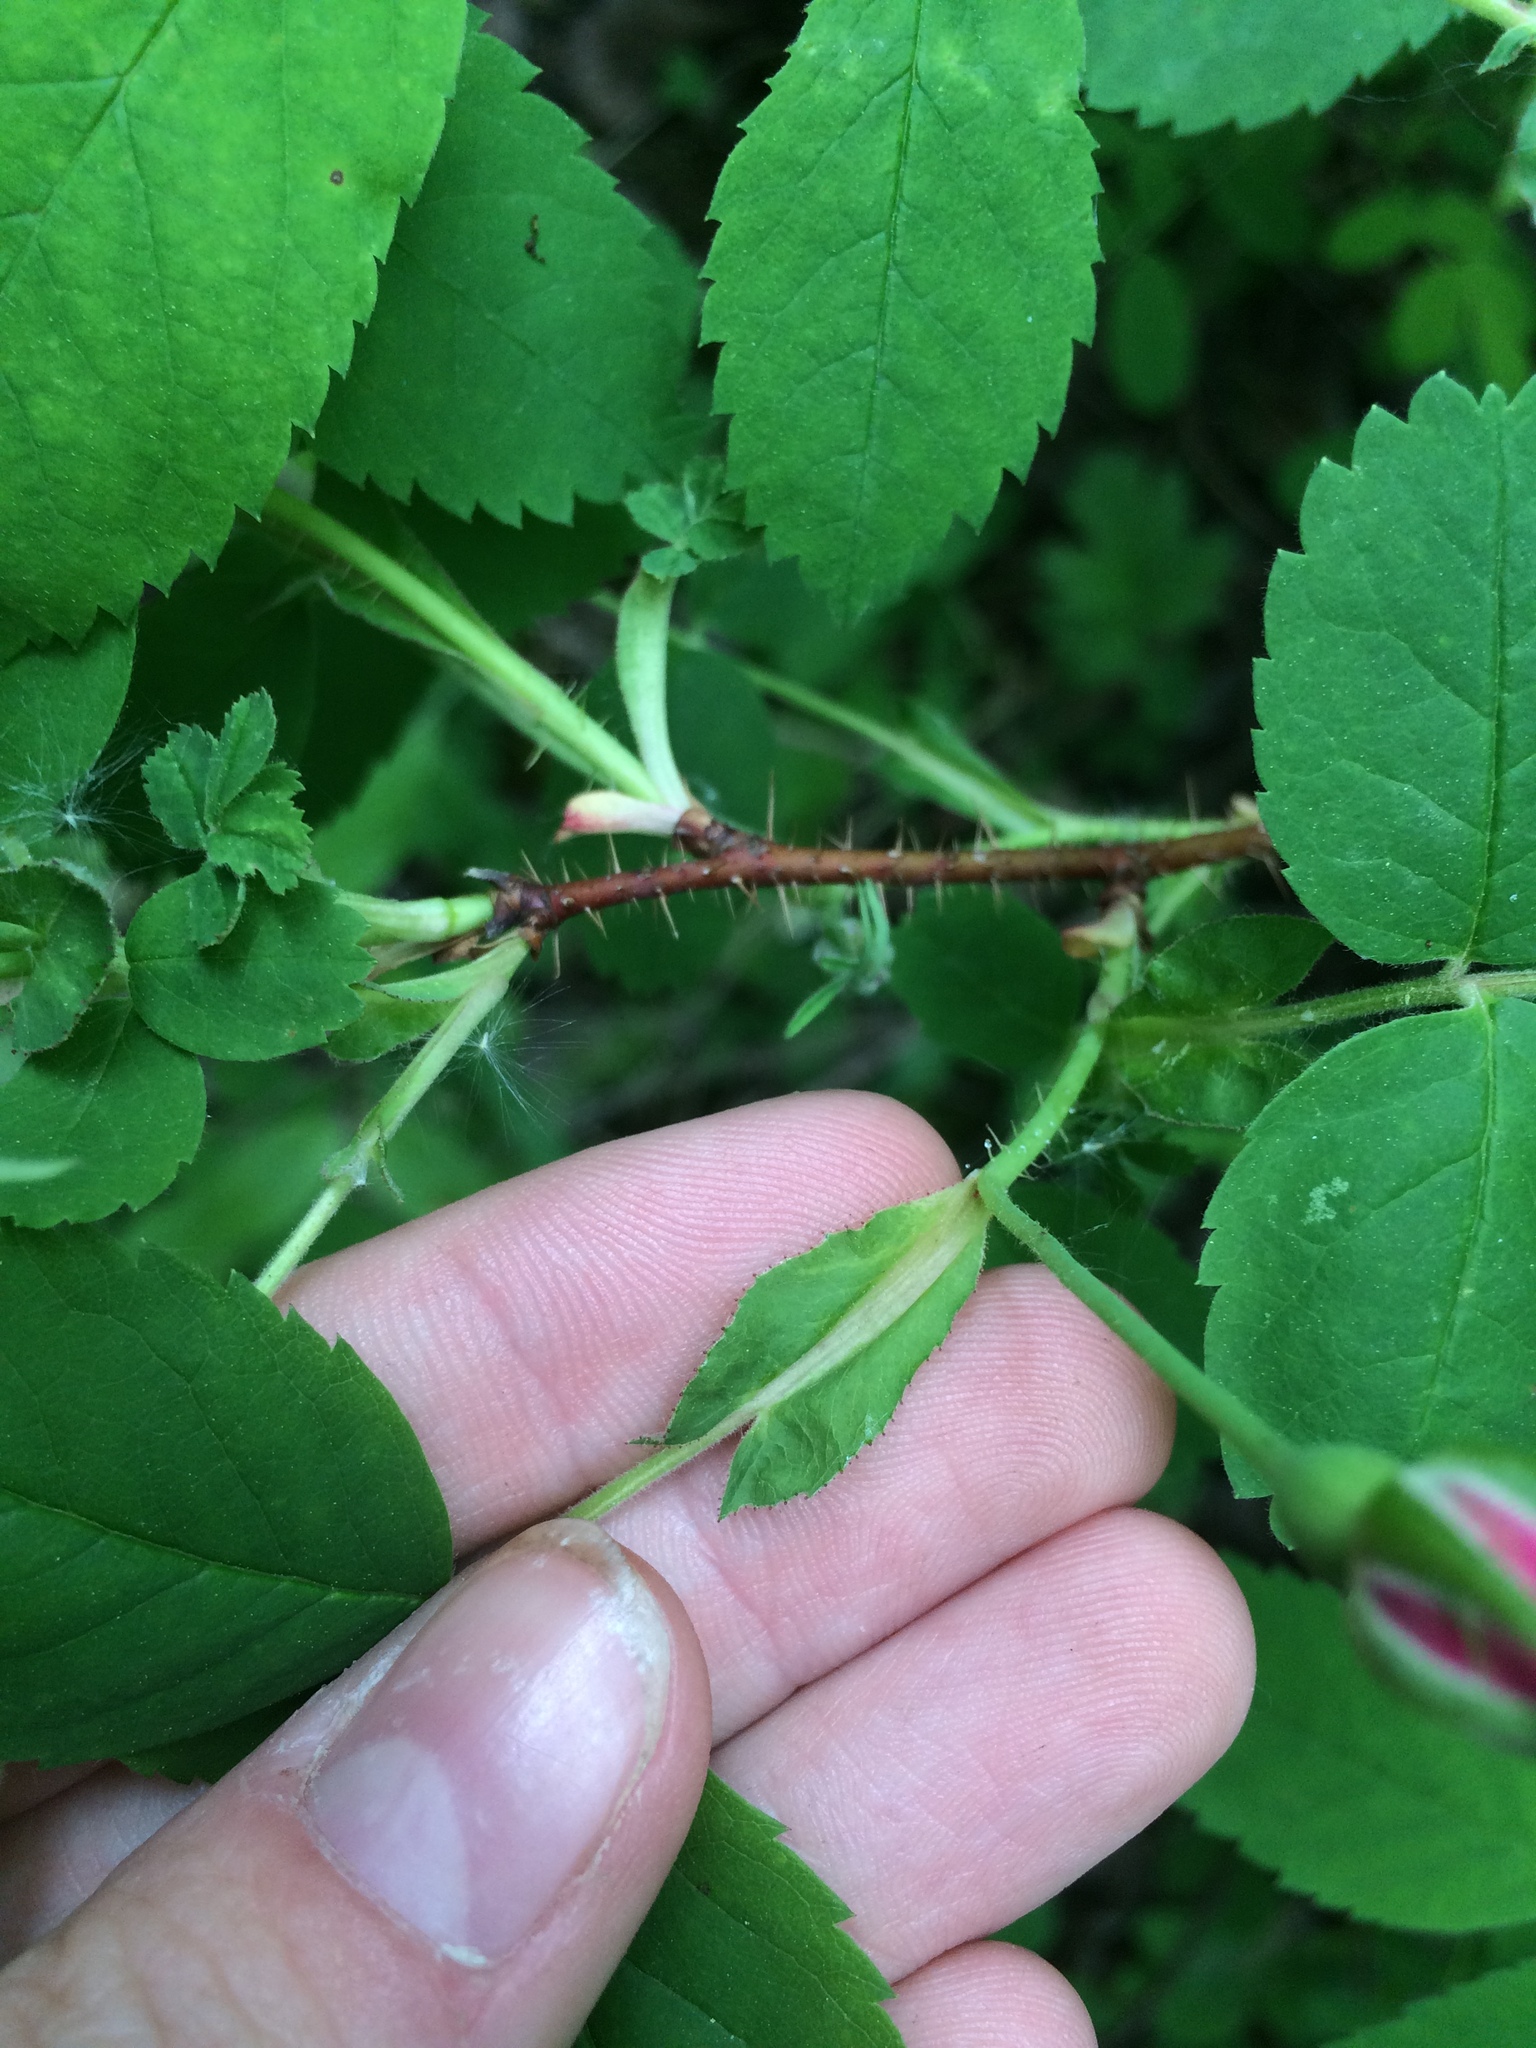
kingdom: Plantae
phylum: Tracheophyta
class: Magnoliopsida
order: Rosales
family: Rosaceae
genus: Rosa
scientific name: Rosa acicularis
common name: Prickly rose
